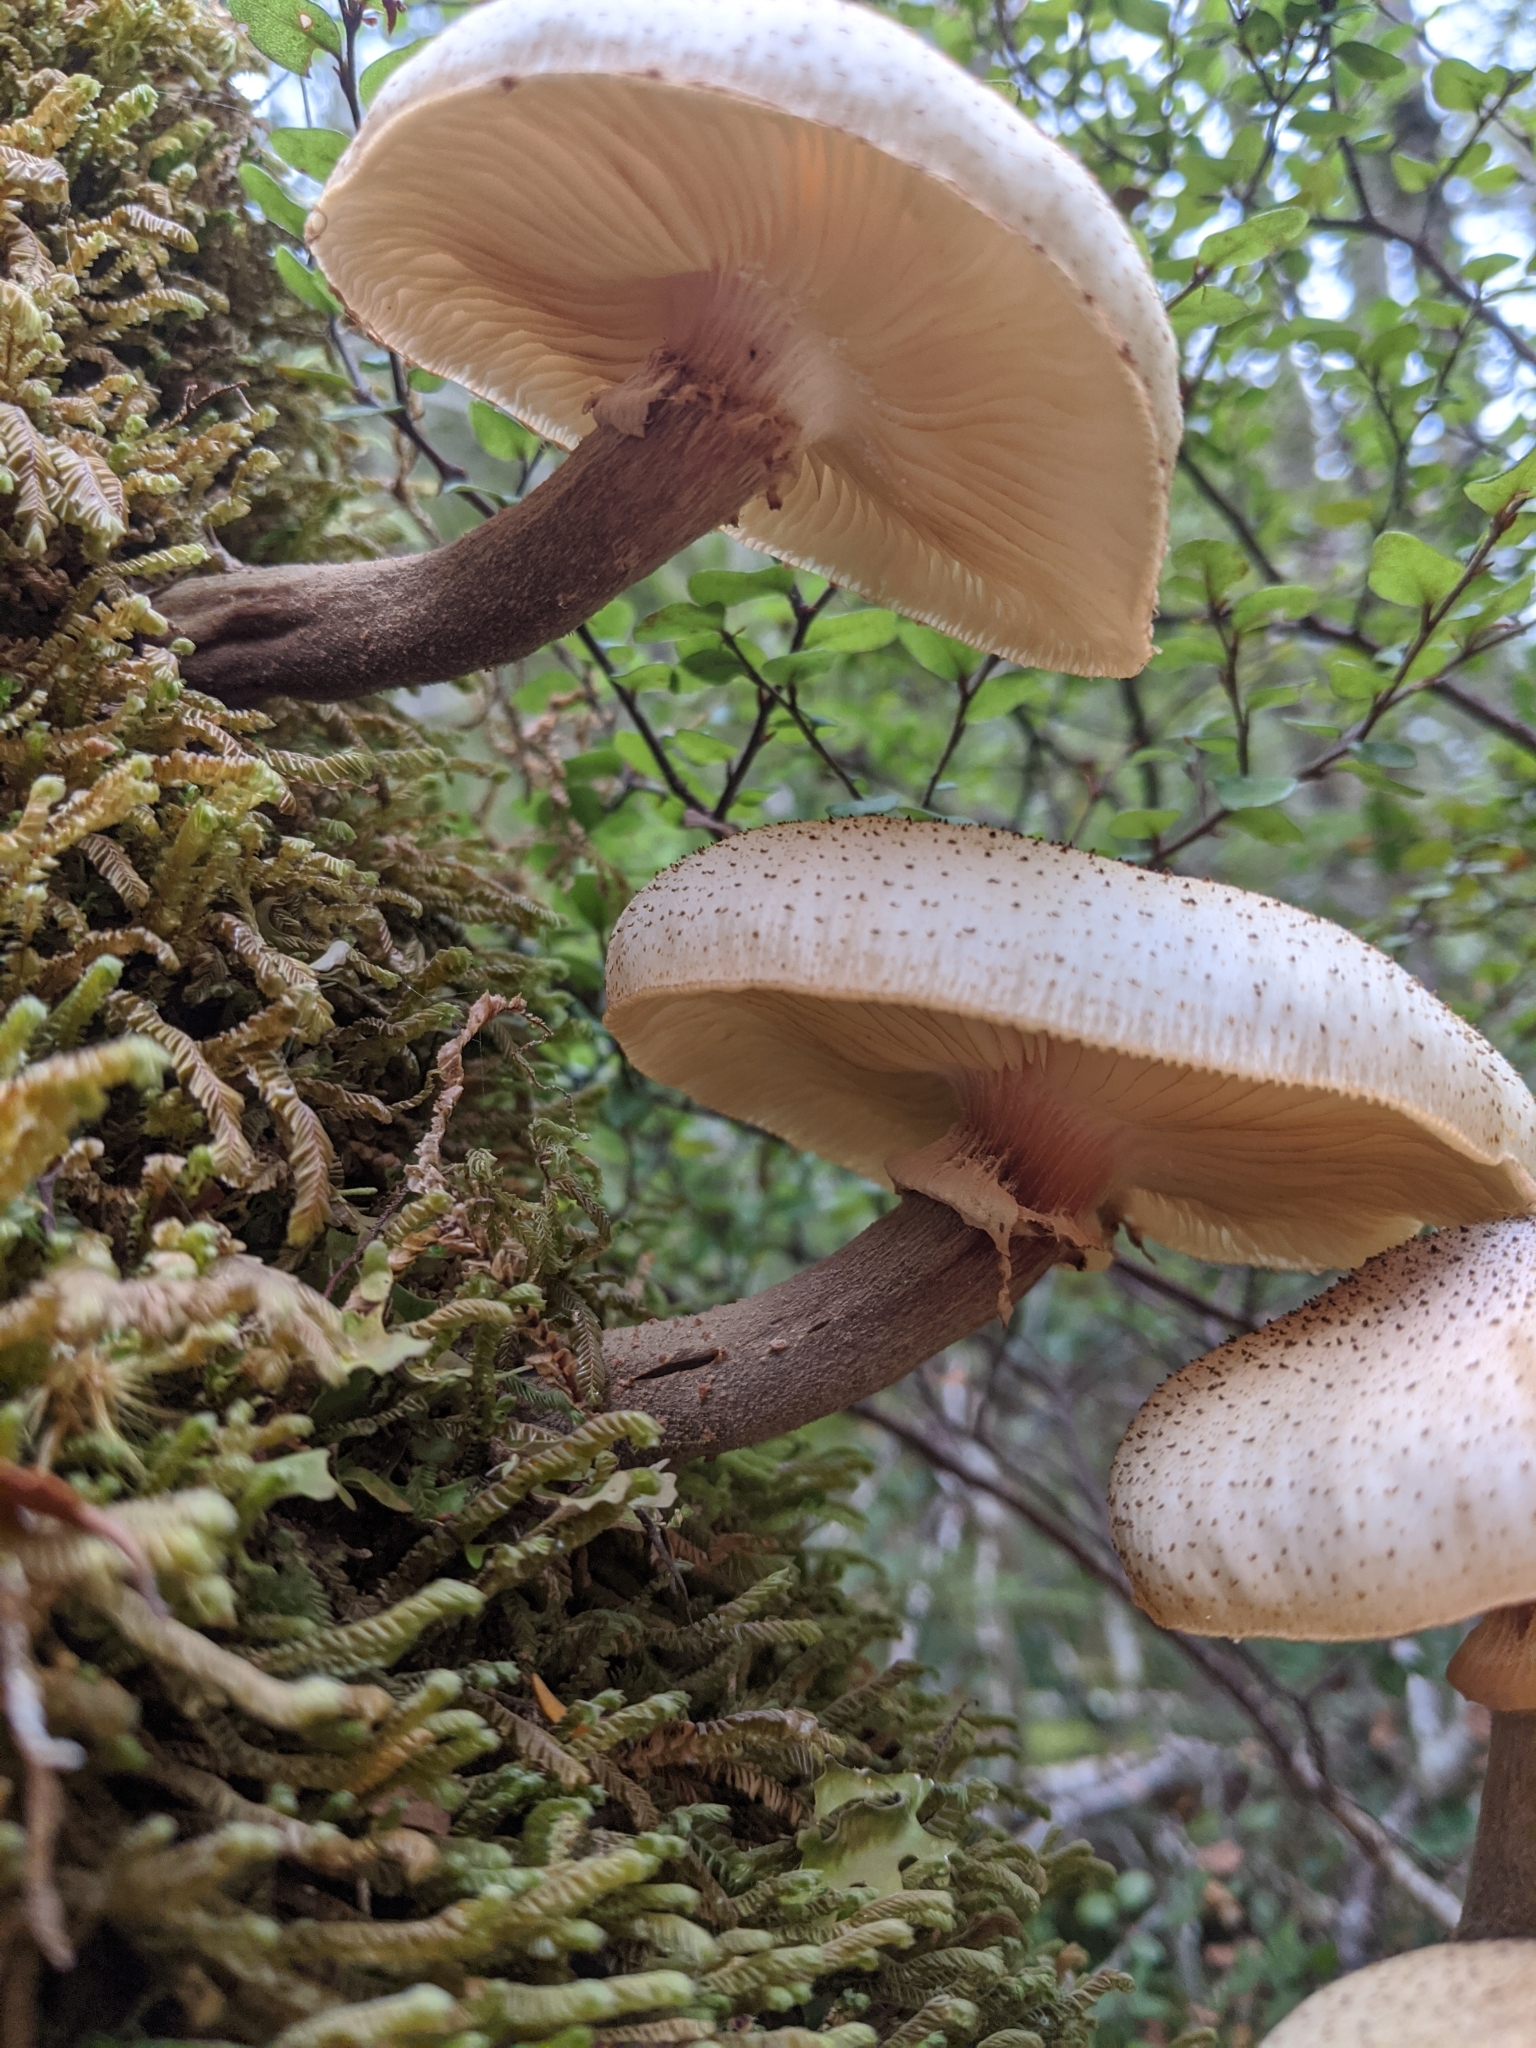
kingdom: Fungi
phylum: Basidiomycota
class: Agaricomycetes
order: Agaricales
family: Physalacriaceae
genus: Armillaria
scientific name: Armillaria limonea
